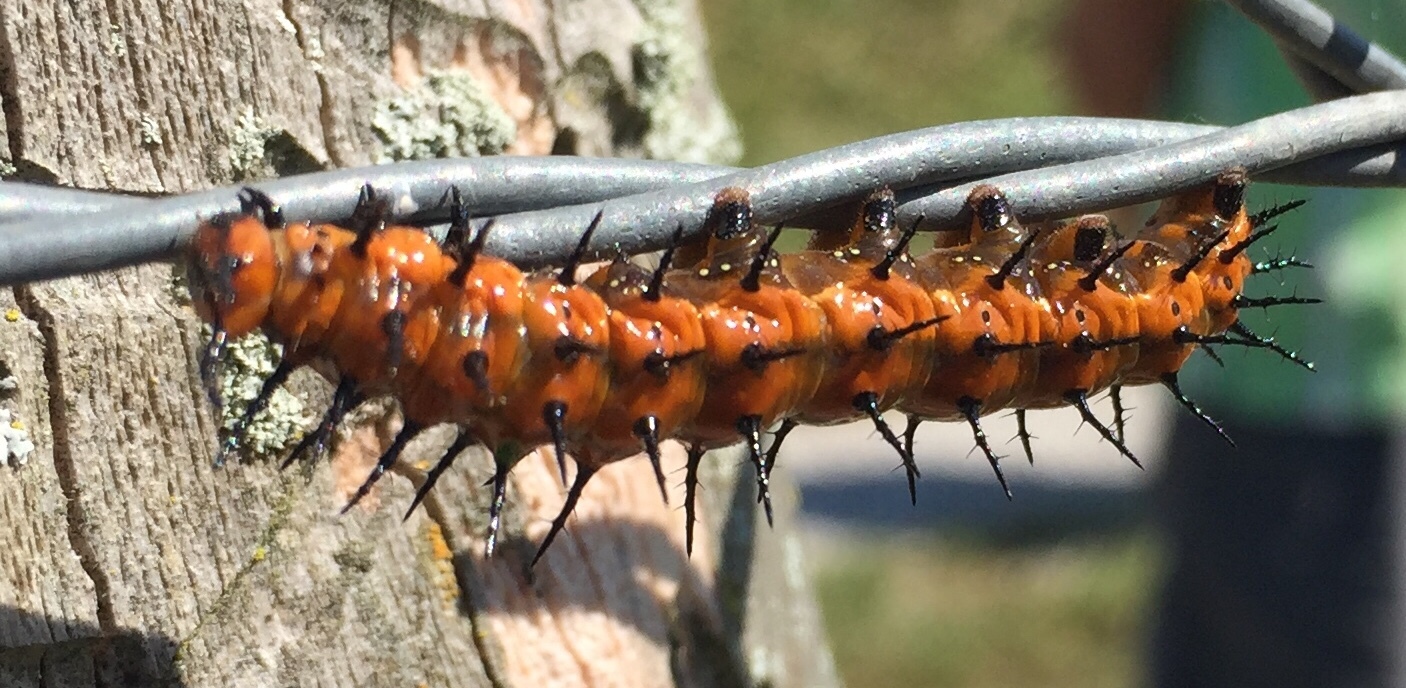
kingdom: Animalia
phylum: Arthropoda
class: Insecta
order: Lepidoptera
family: Nymphalidae
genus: Dione
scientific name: Dione vanillae
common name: Gulf fritillary
